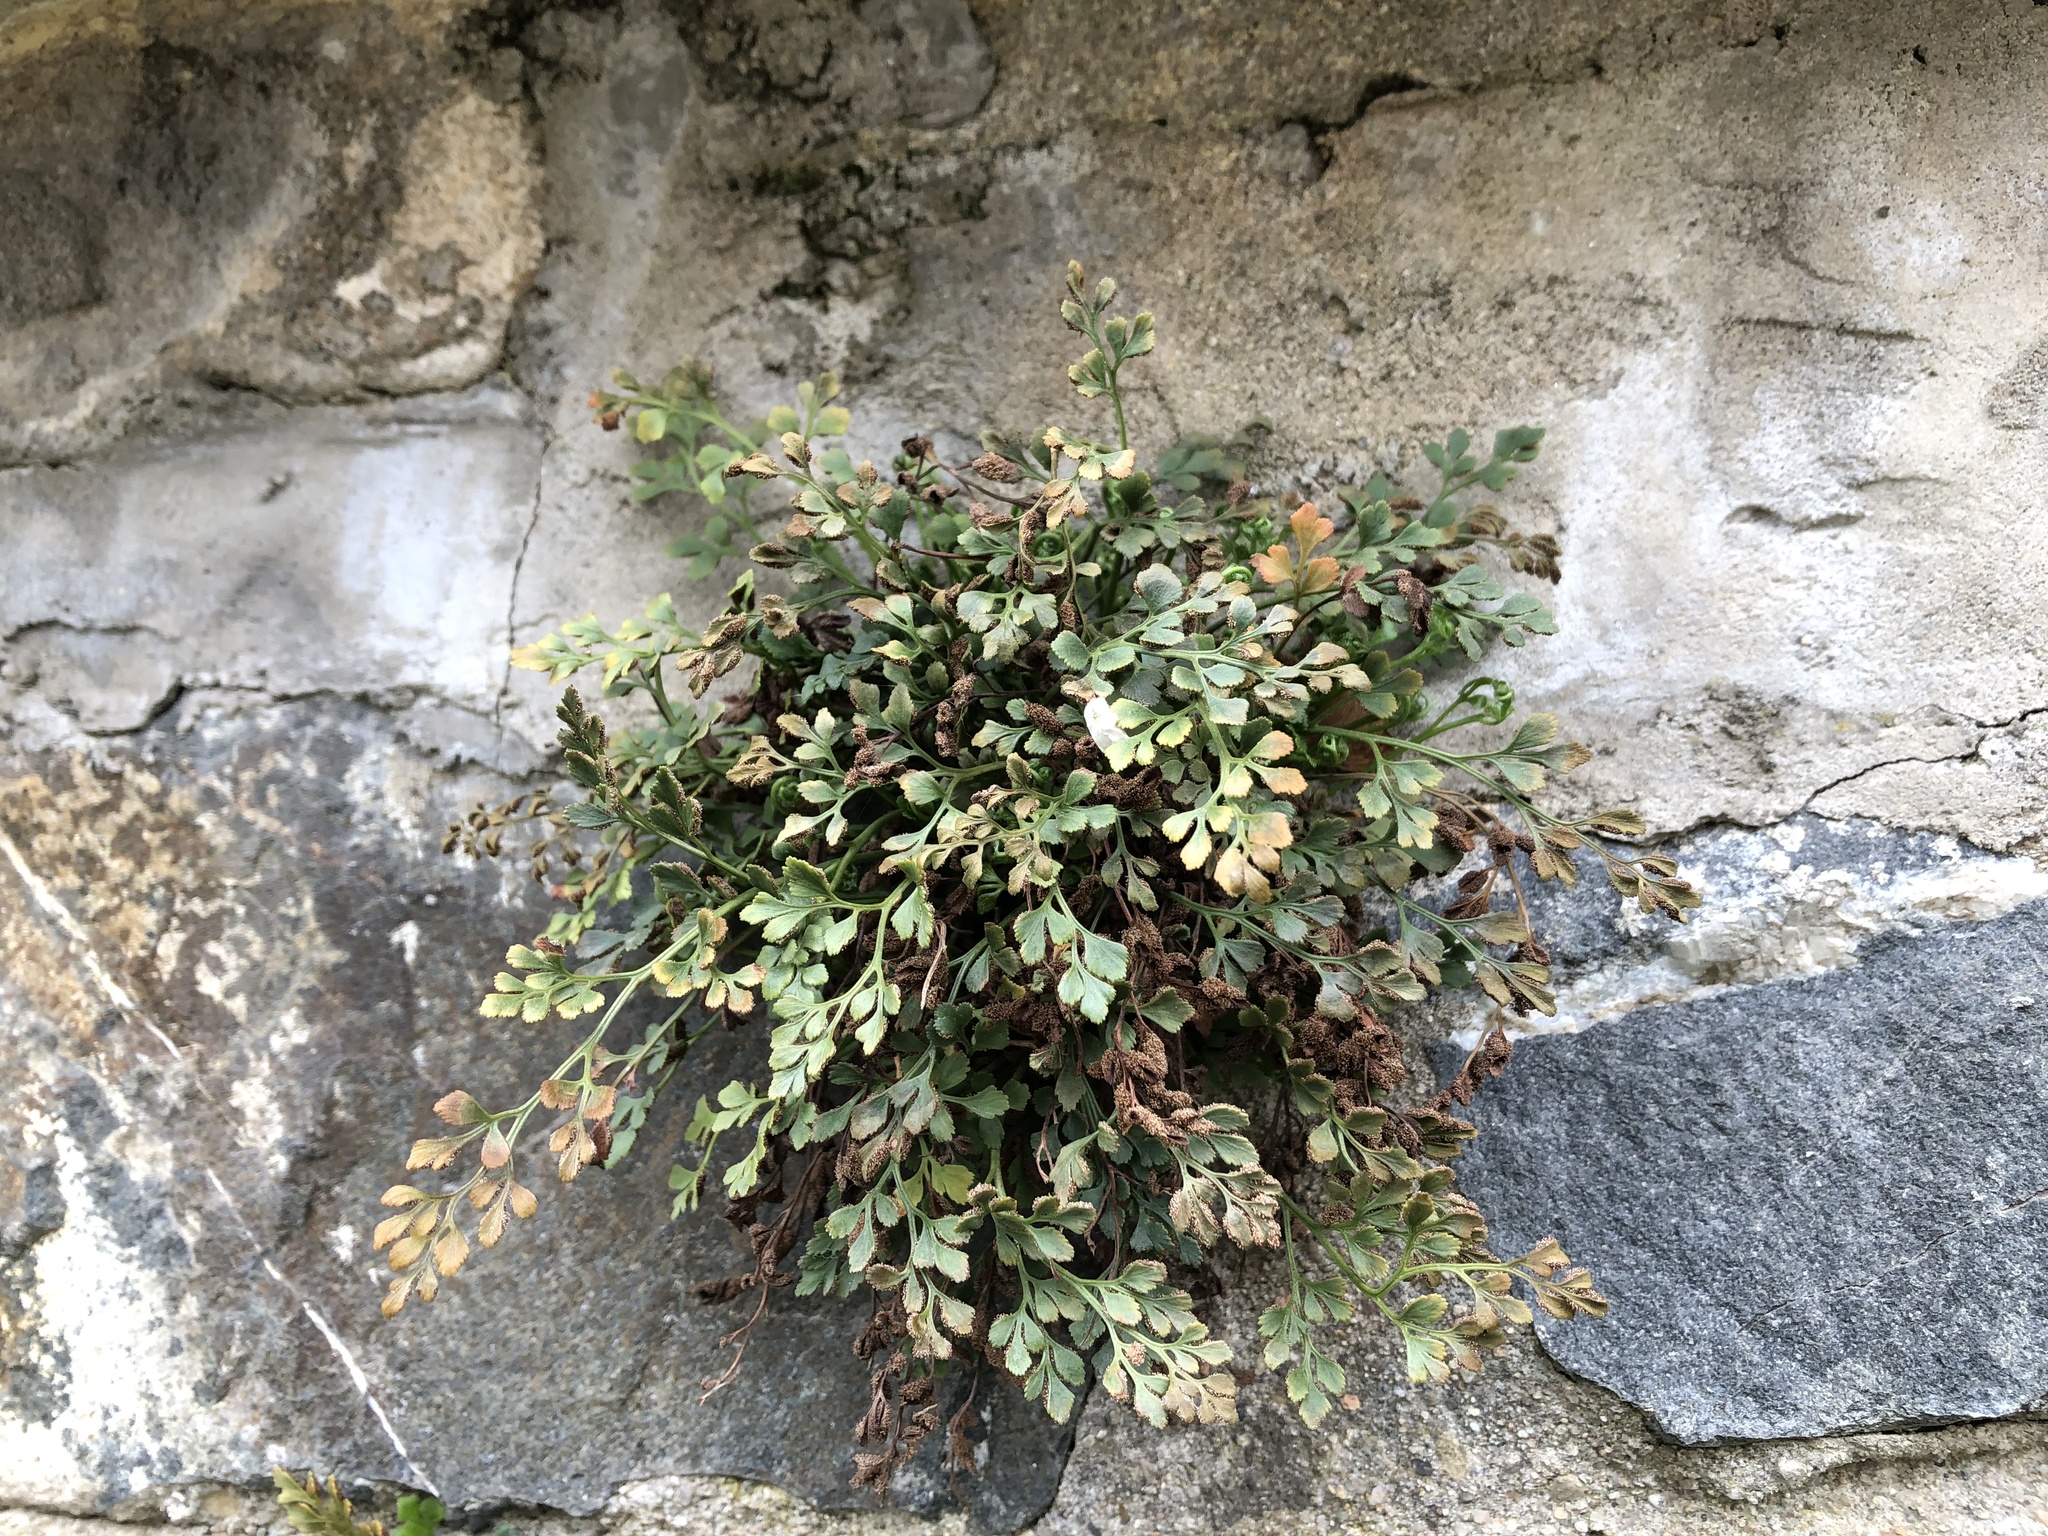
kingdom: Plantae
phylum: Tracheophyta
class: Polypodiopsida
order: Polypodiales
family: Aspleniaceae
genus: Asplenium
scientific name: Asplenium ruta-muraria
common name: Wall-rue
